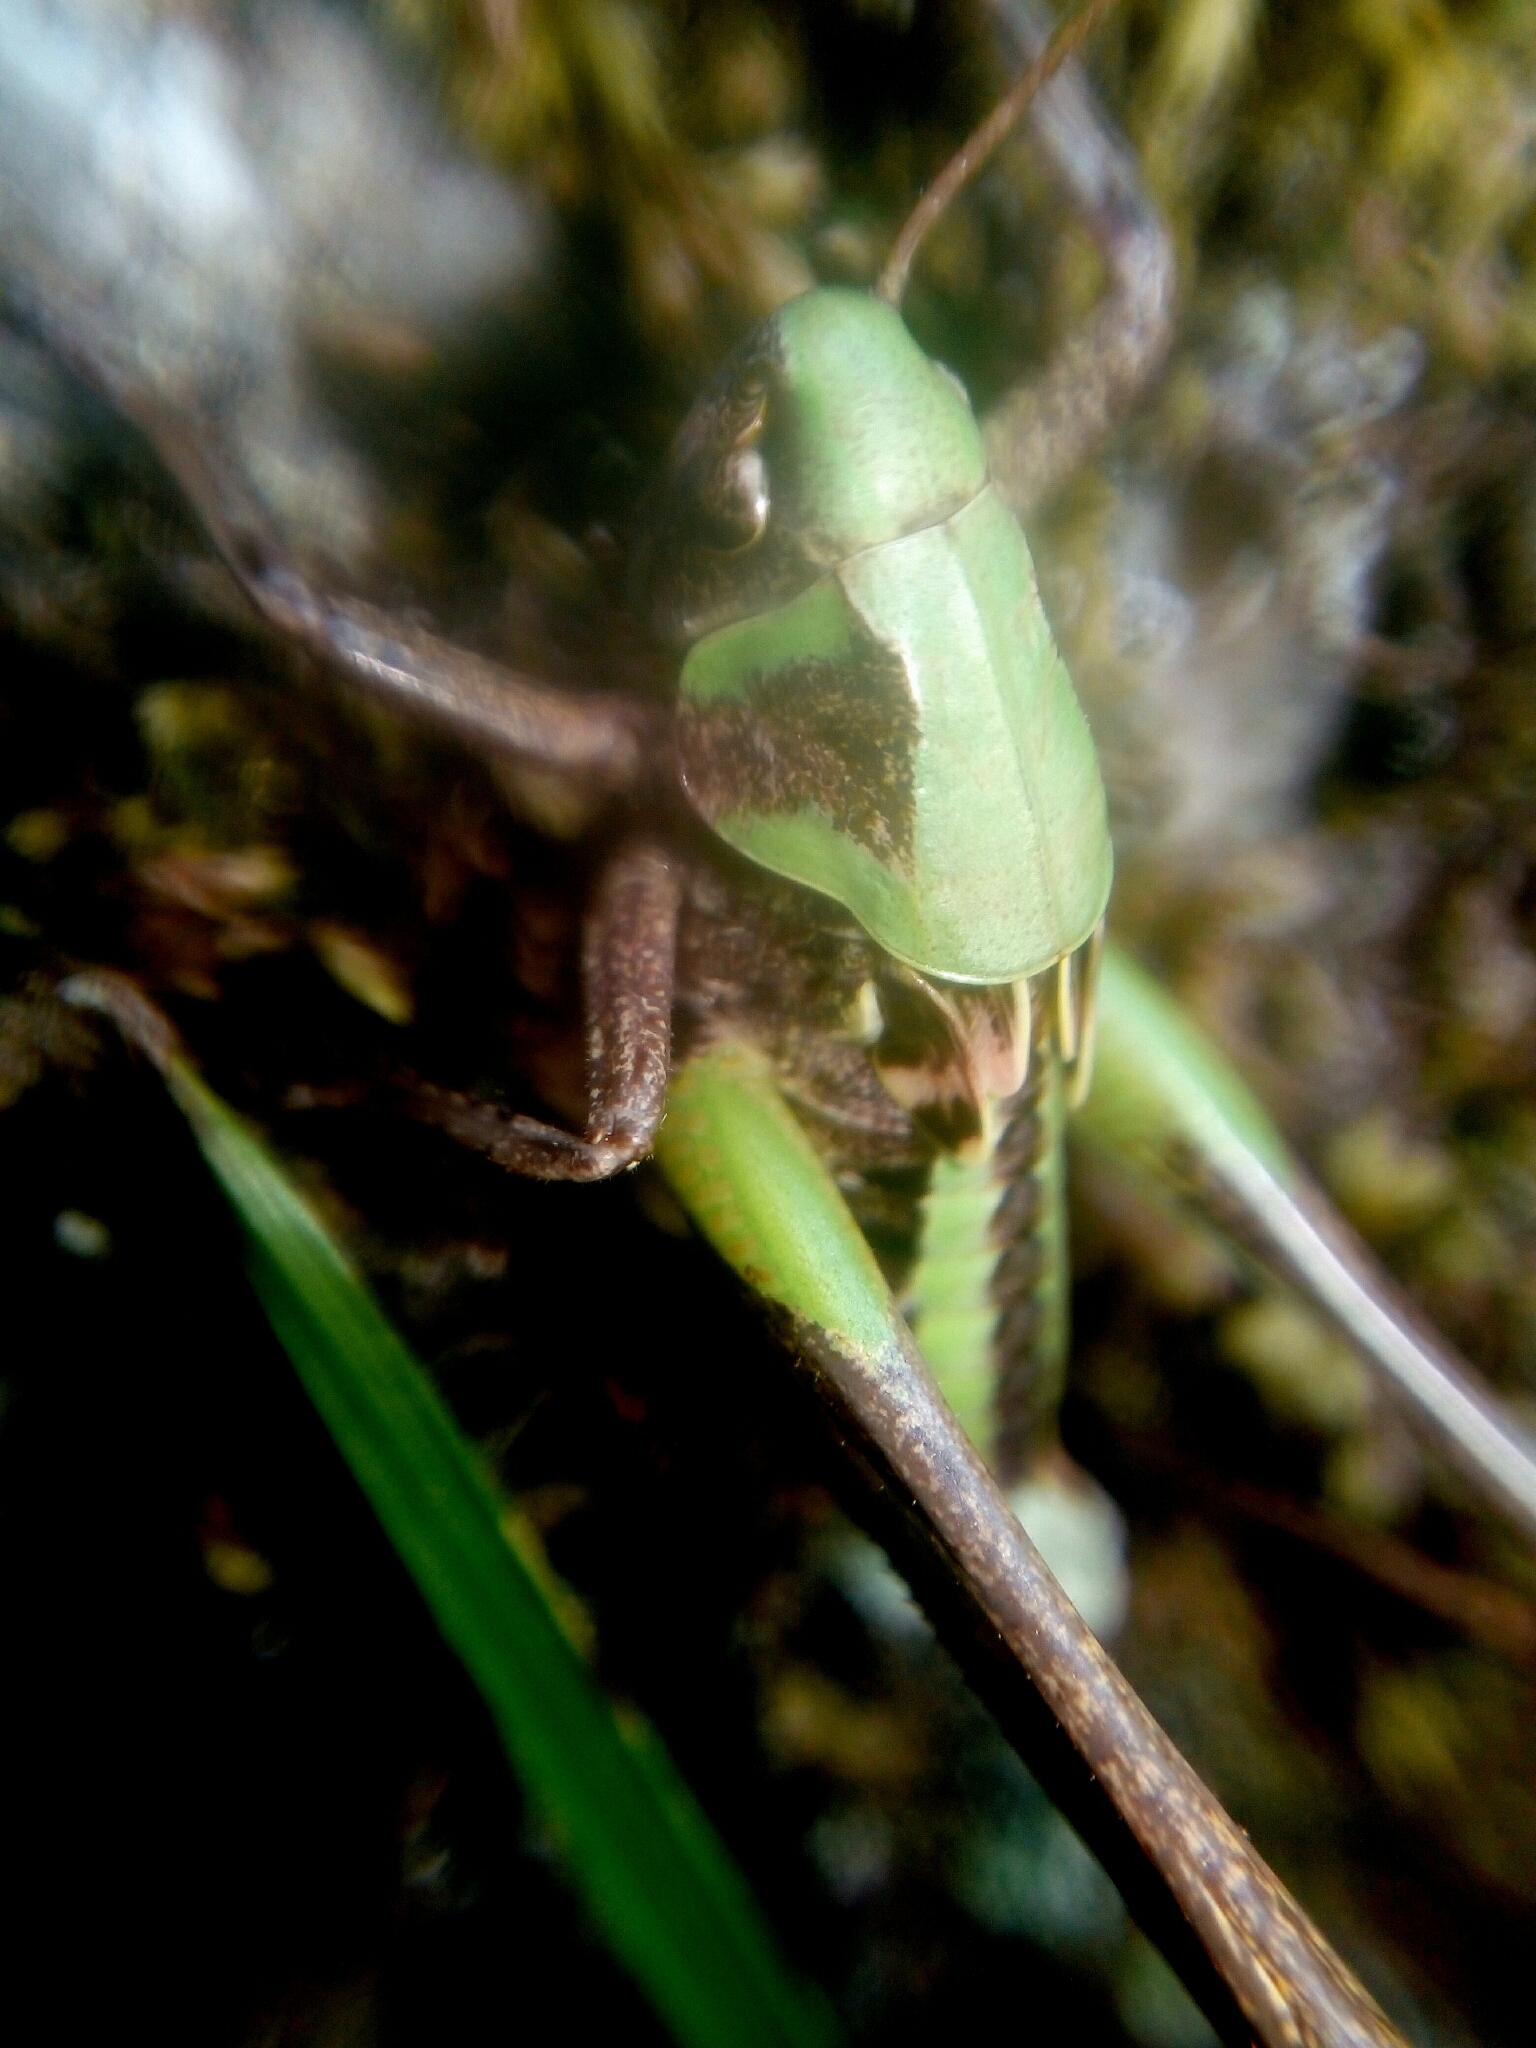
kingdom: Animalia
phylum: Arthropoda
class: Insecta
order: Orthoptera
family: Tettigoniidae
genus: Decticus
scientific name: Decticus verrucivorus
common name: Wart-biter
